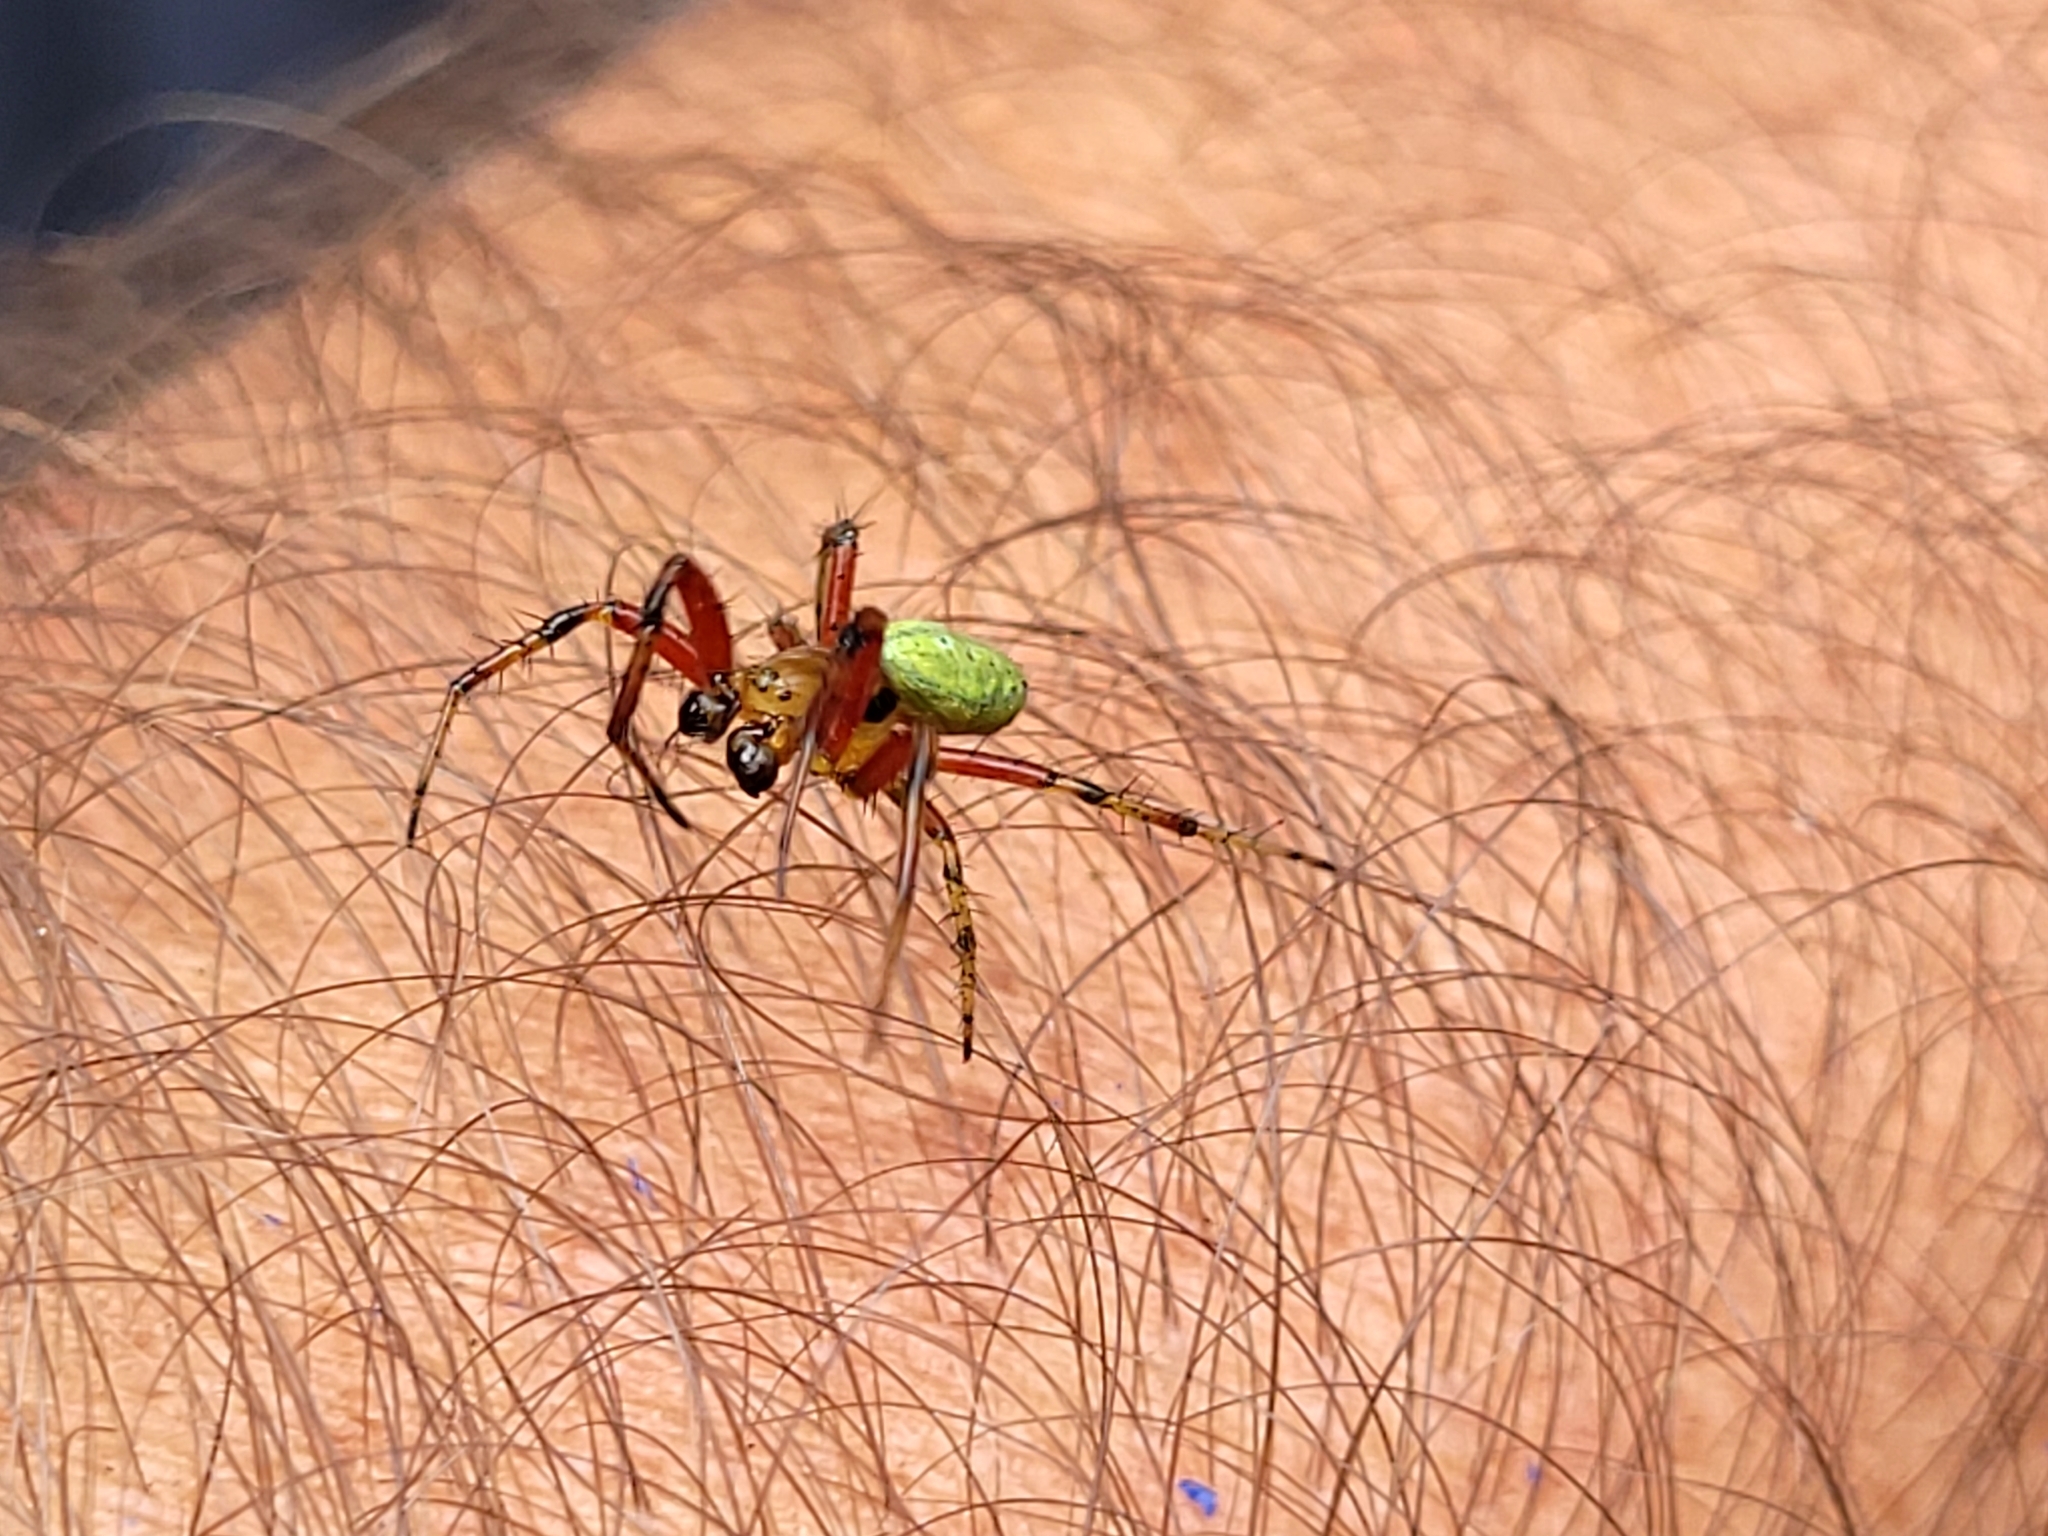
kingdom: Animalia
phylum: Arthropoda
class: Arachnida
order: Araneae
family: Araneidae
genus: Araniella
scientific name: Araniella proxima
